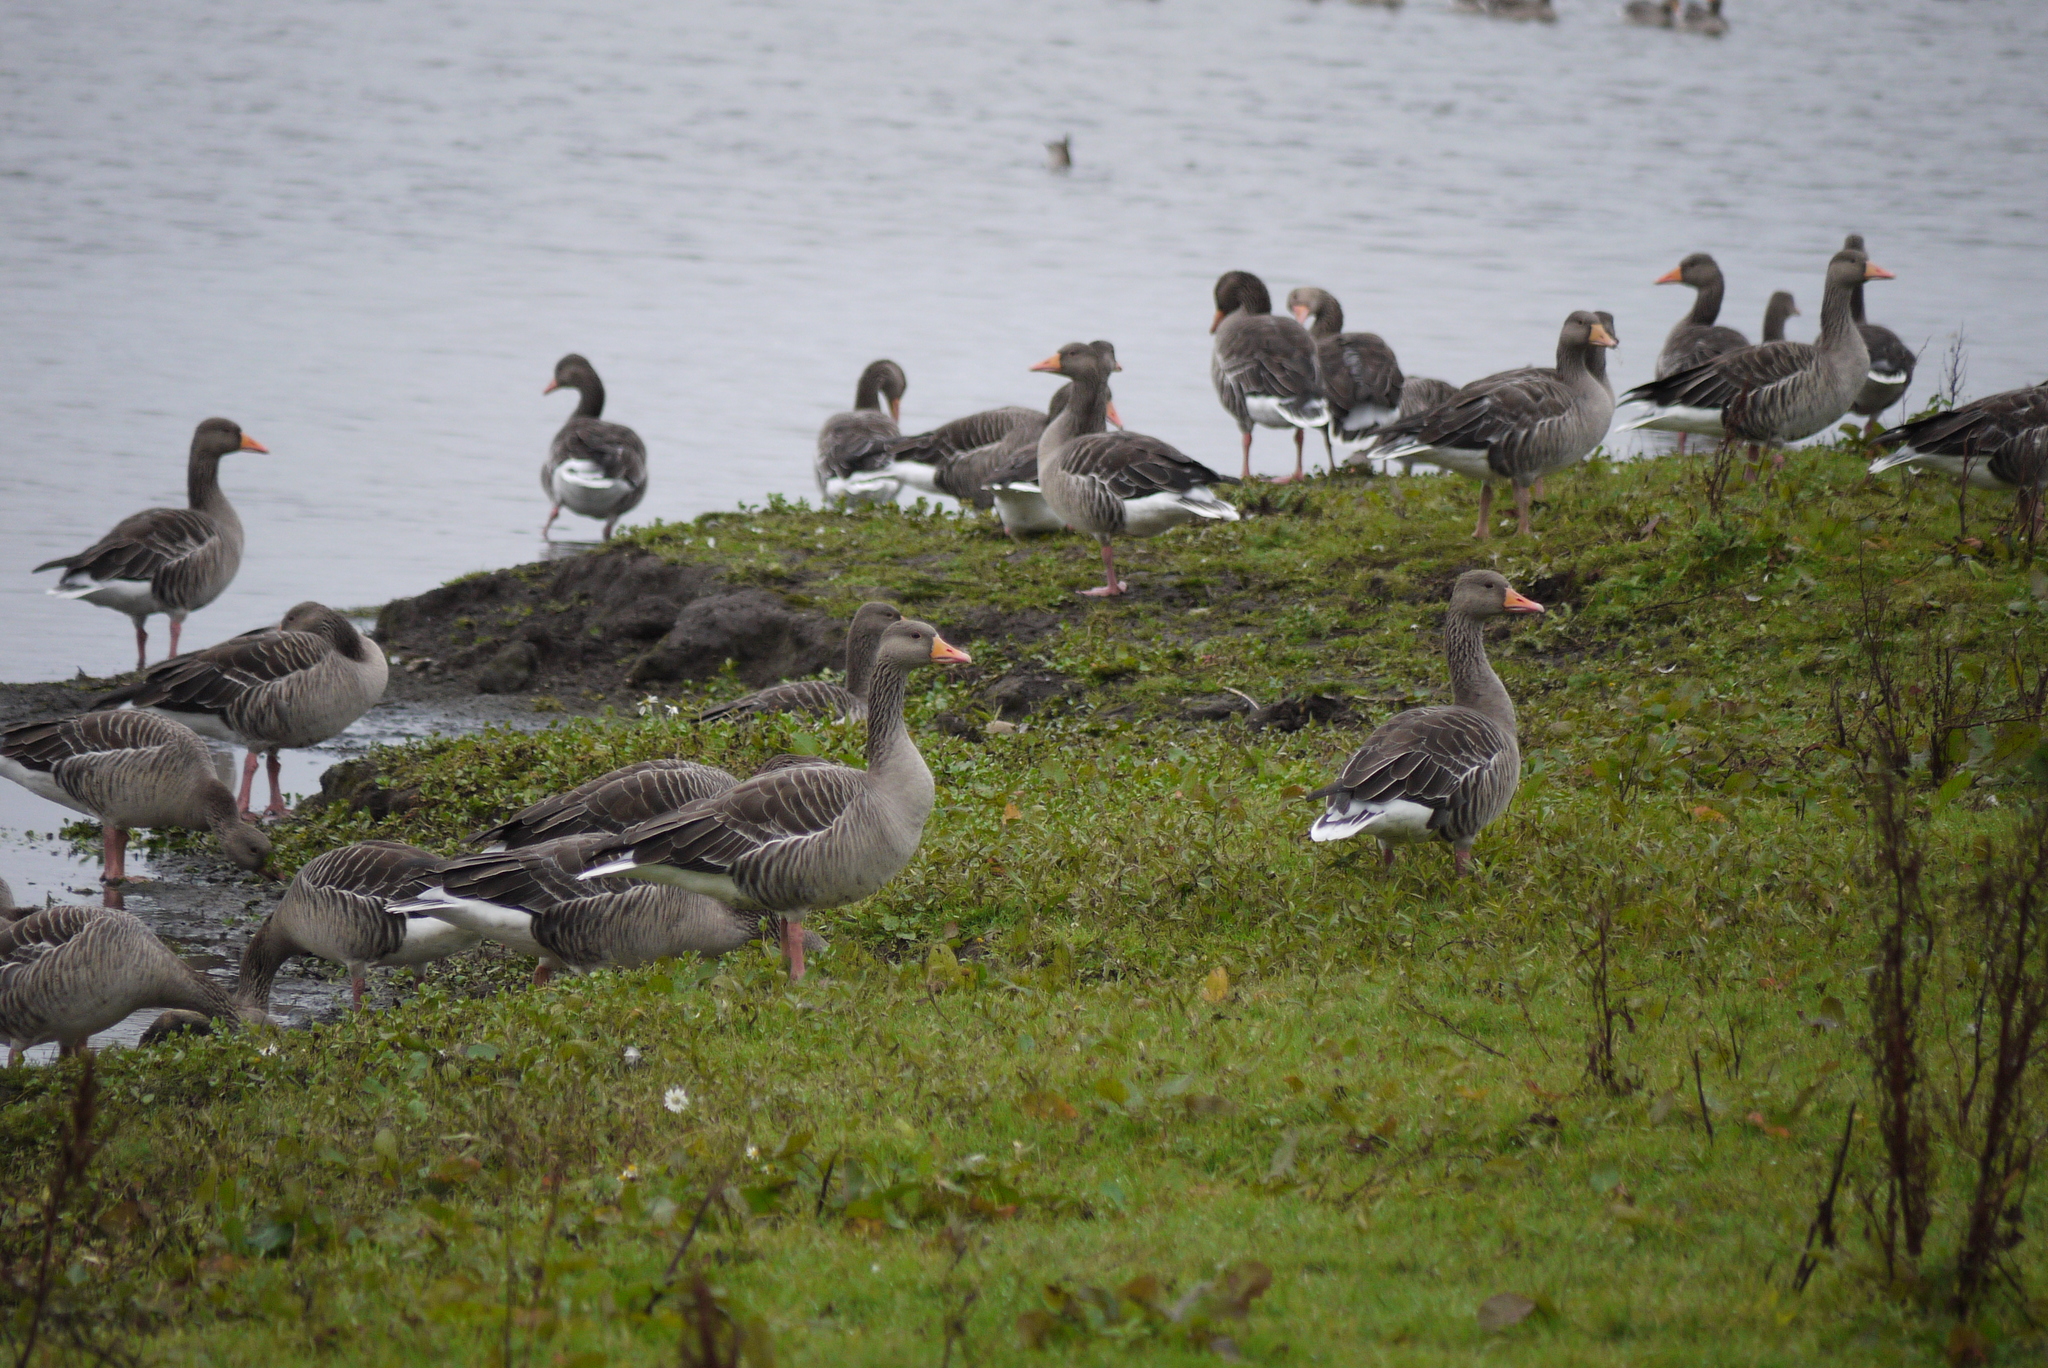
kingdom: Animalia
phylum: Chordata
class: Aves
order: Anseriformes
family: Anatidae
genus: Anser
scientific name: Anser anser
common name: Greylag goose
